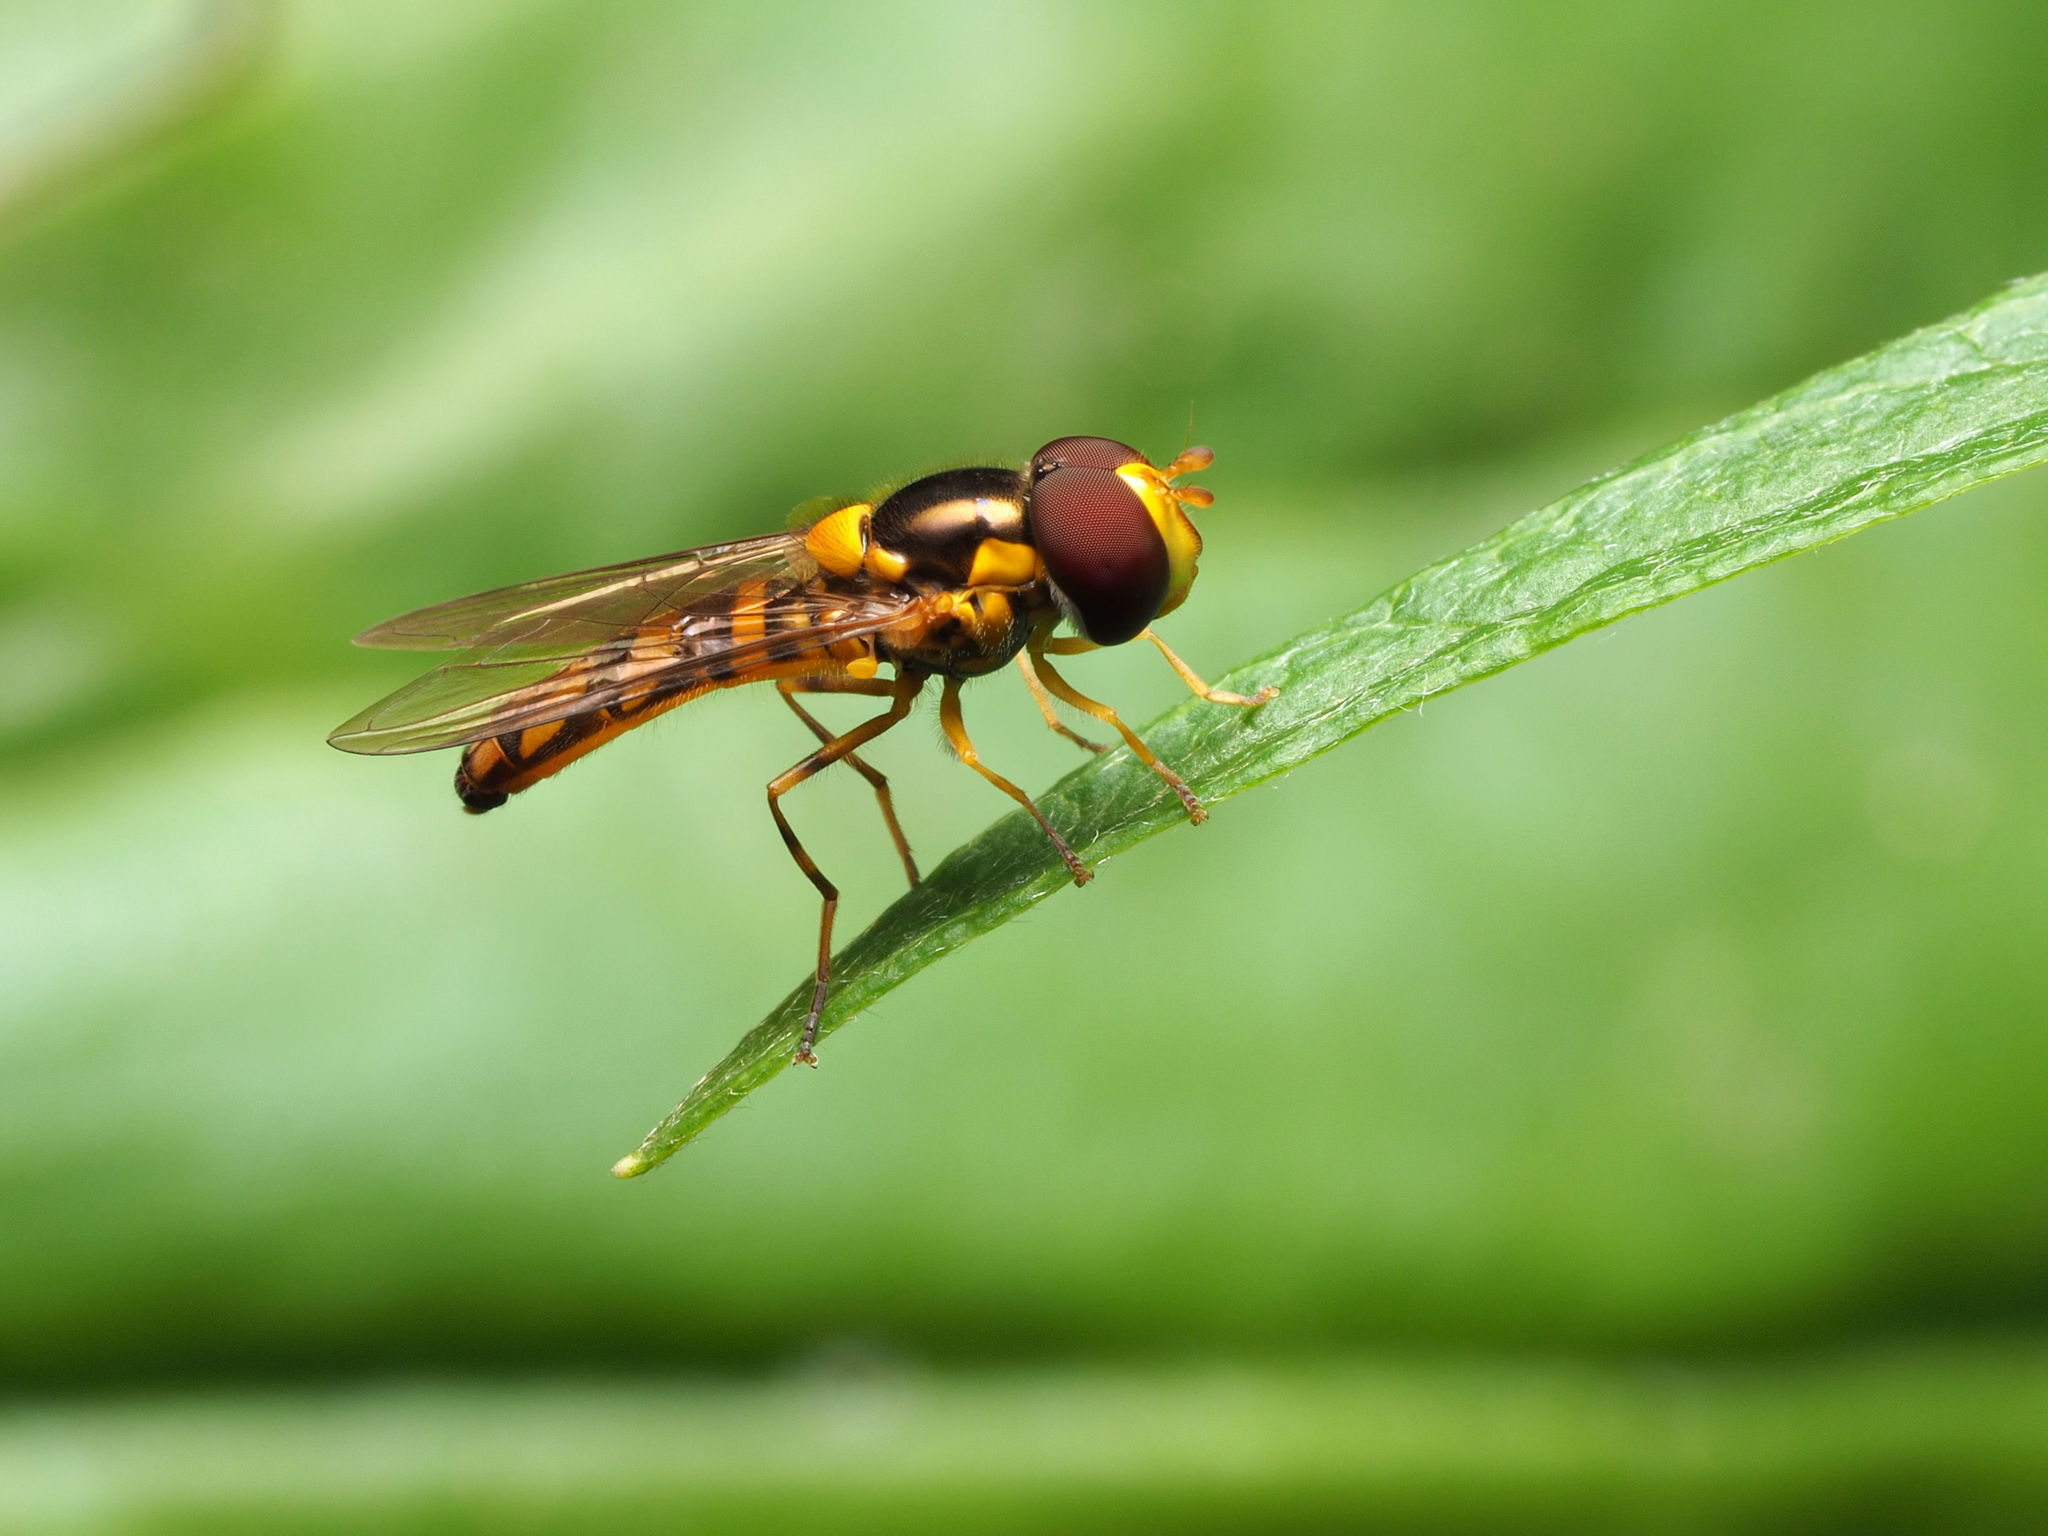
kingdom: Animalia
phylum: Arthropoda
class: Insecta
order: Diptera
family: Syrphidae
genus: Allograpta
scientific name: Allograpta obliqua
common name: Common oblique syrphid
